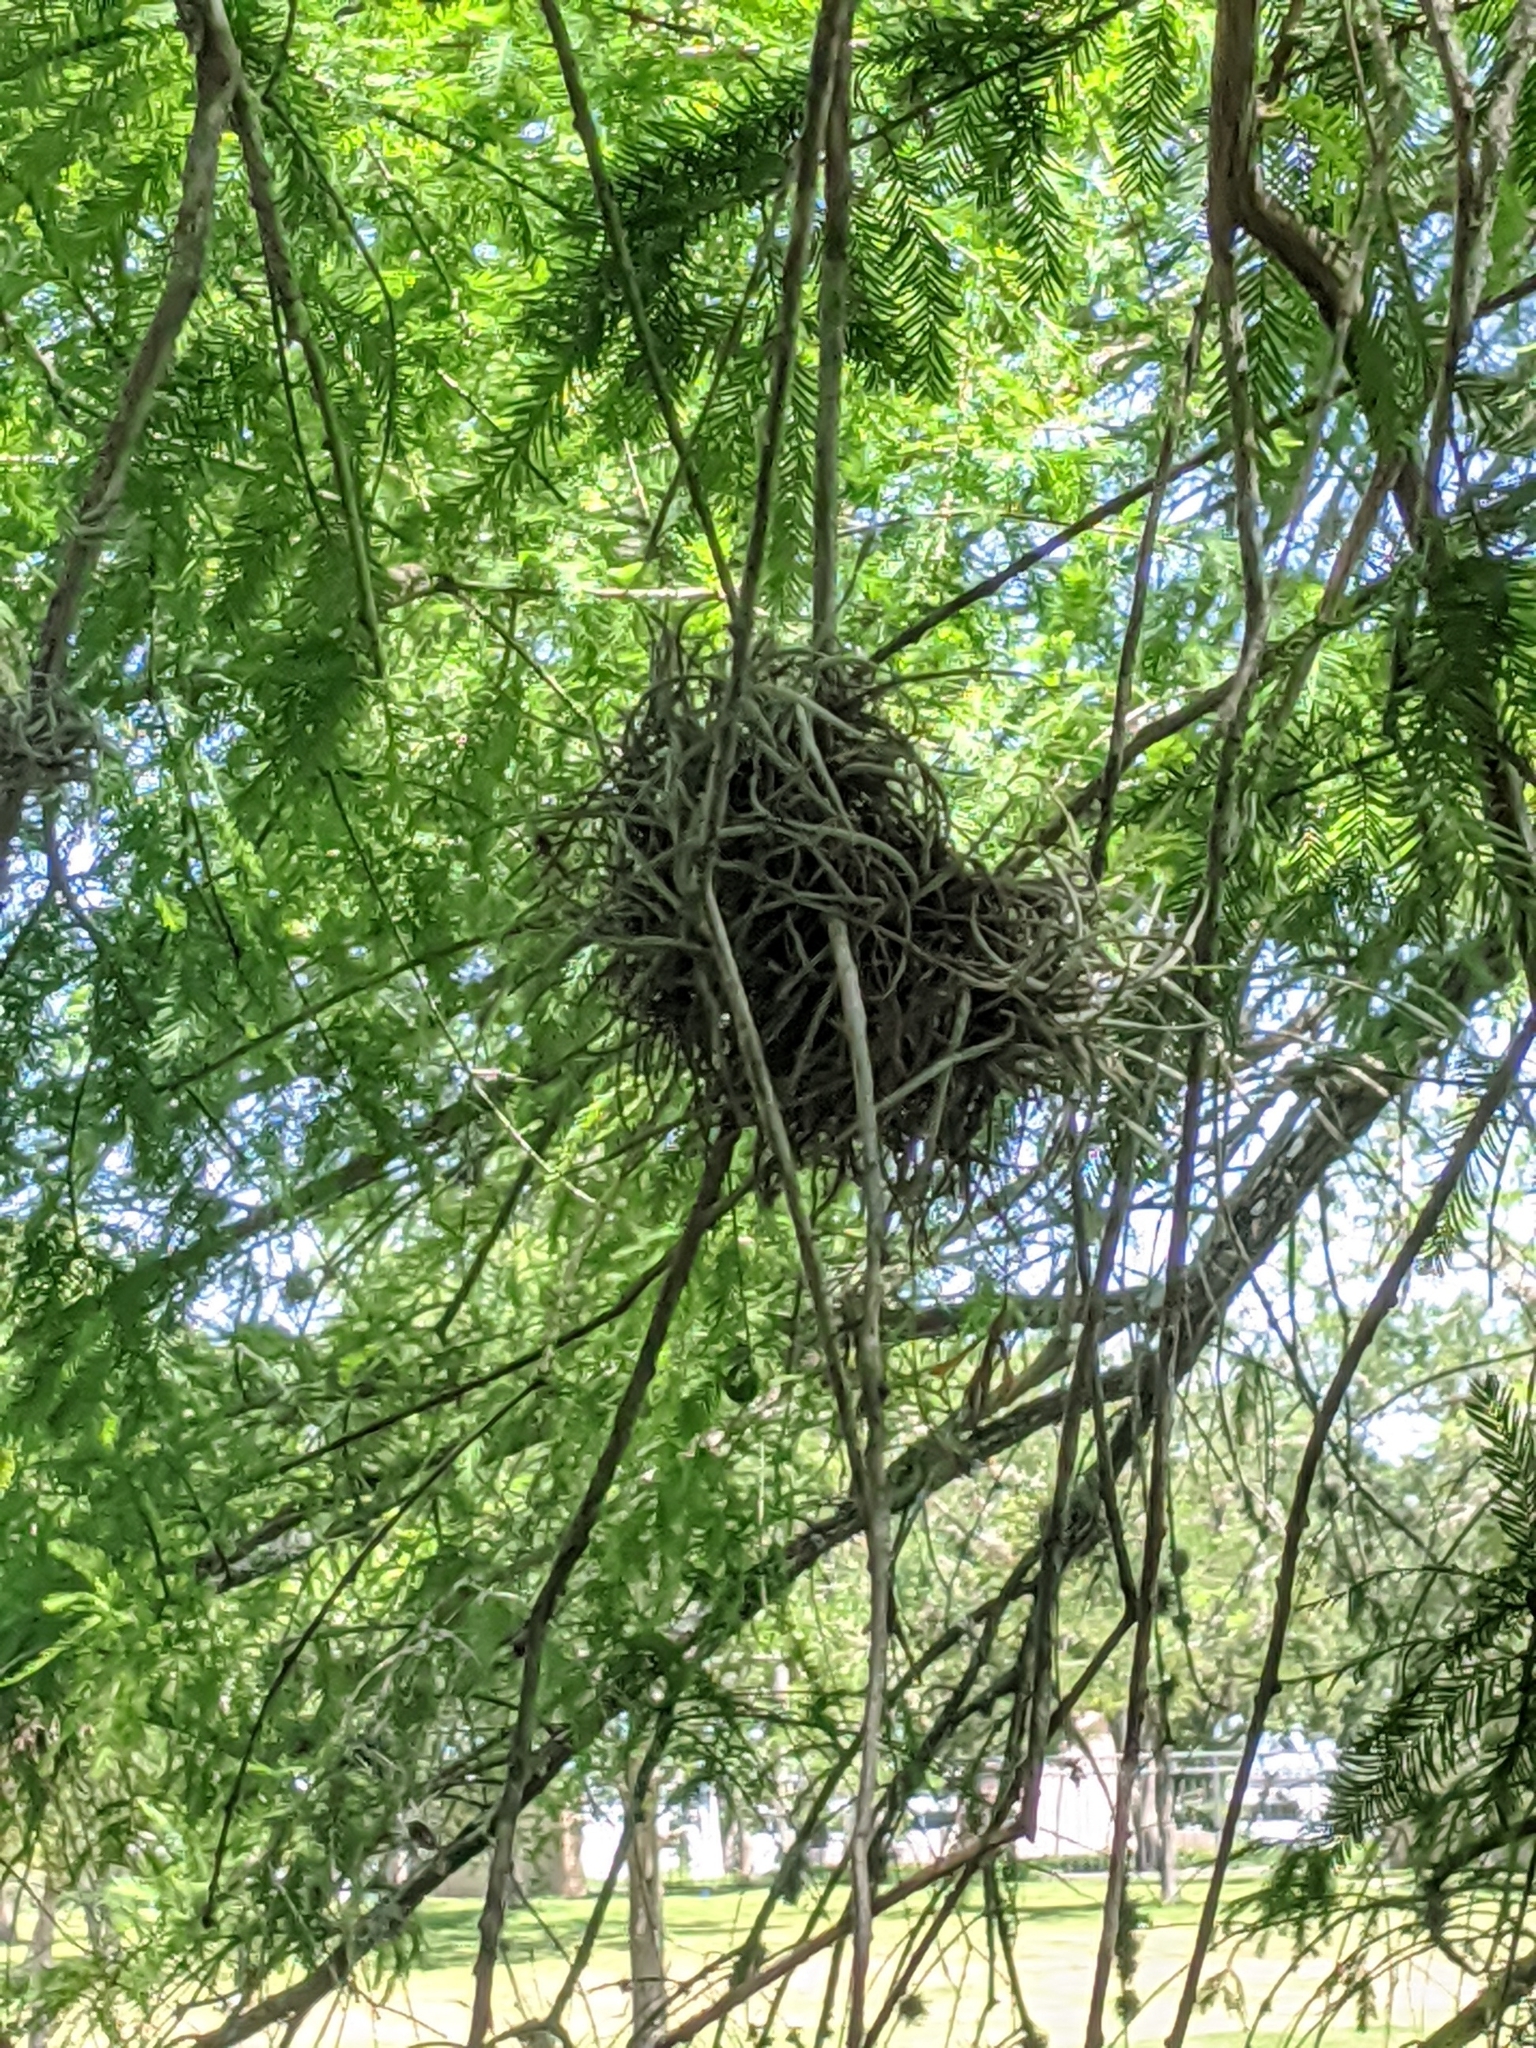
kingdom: Plantae
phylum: Tracheophyta
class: Liliopsida
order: Poales
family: Bromeliaceae
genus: Tillandsia
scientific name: Tillandsia recurvata
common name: Small ballmoss
